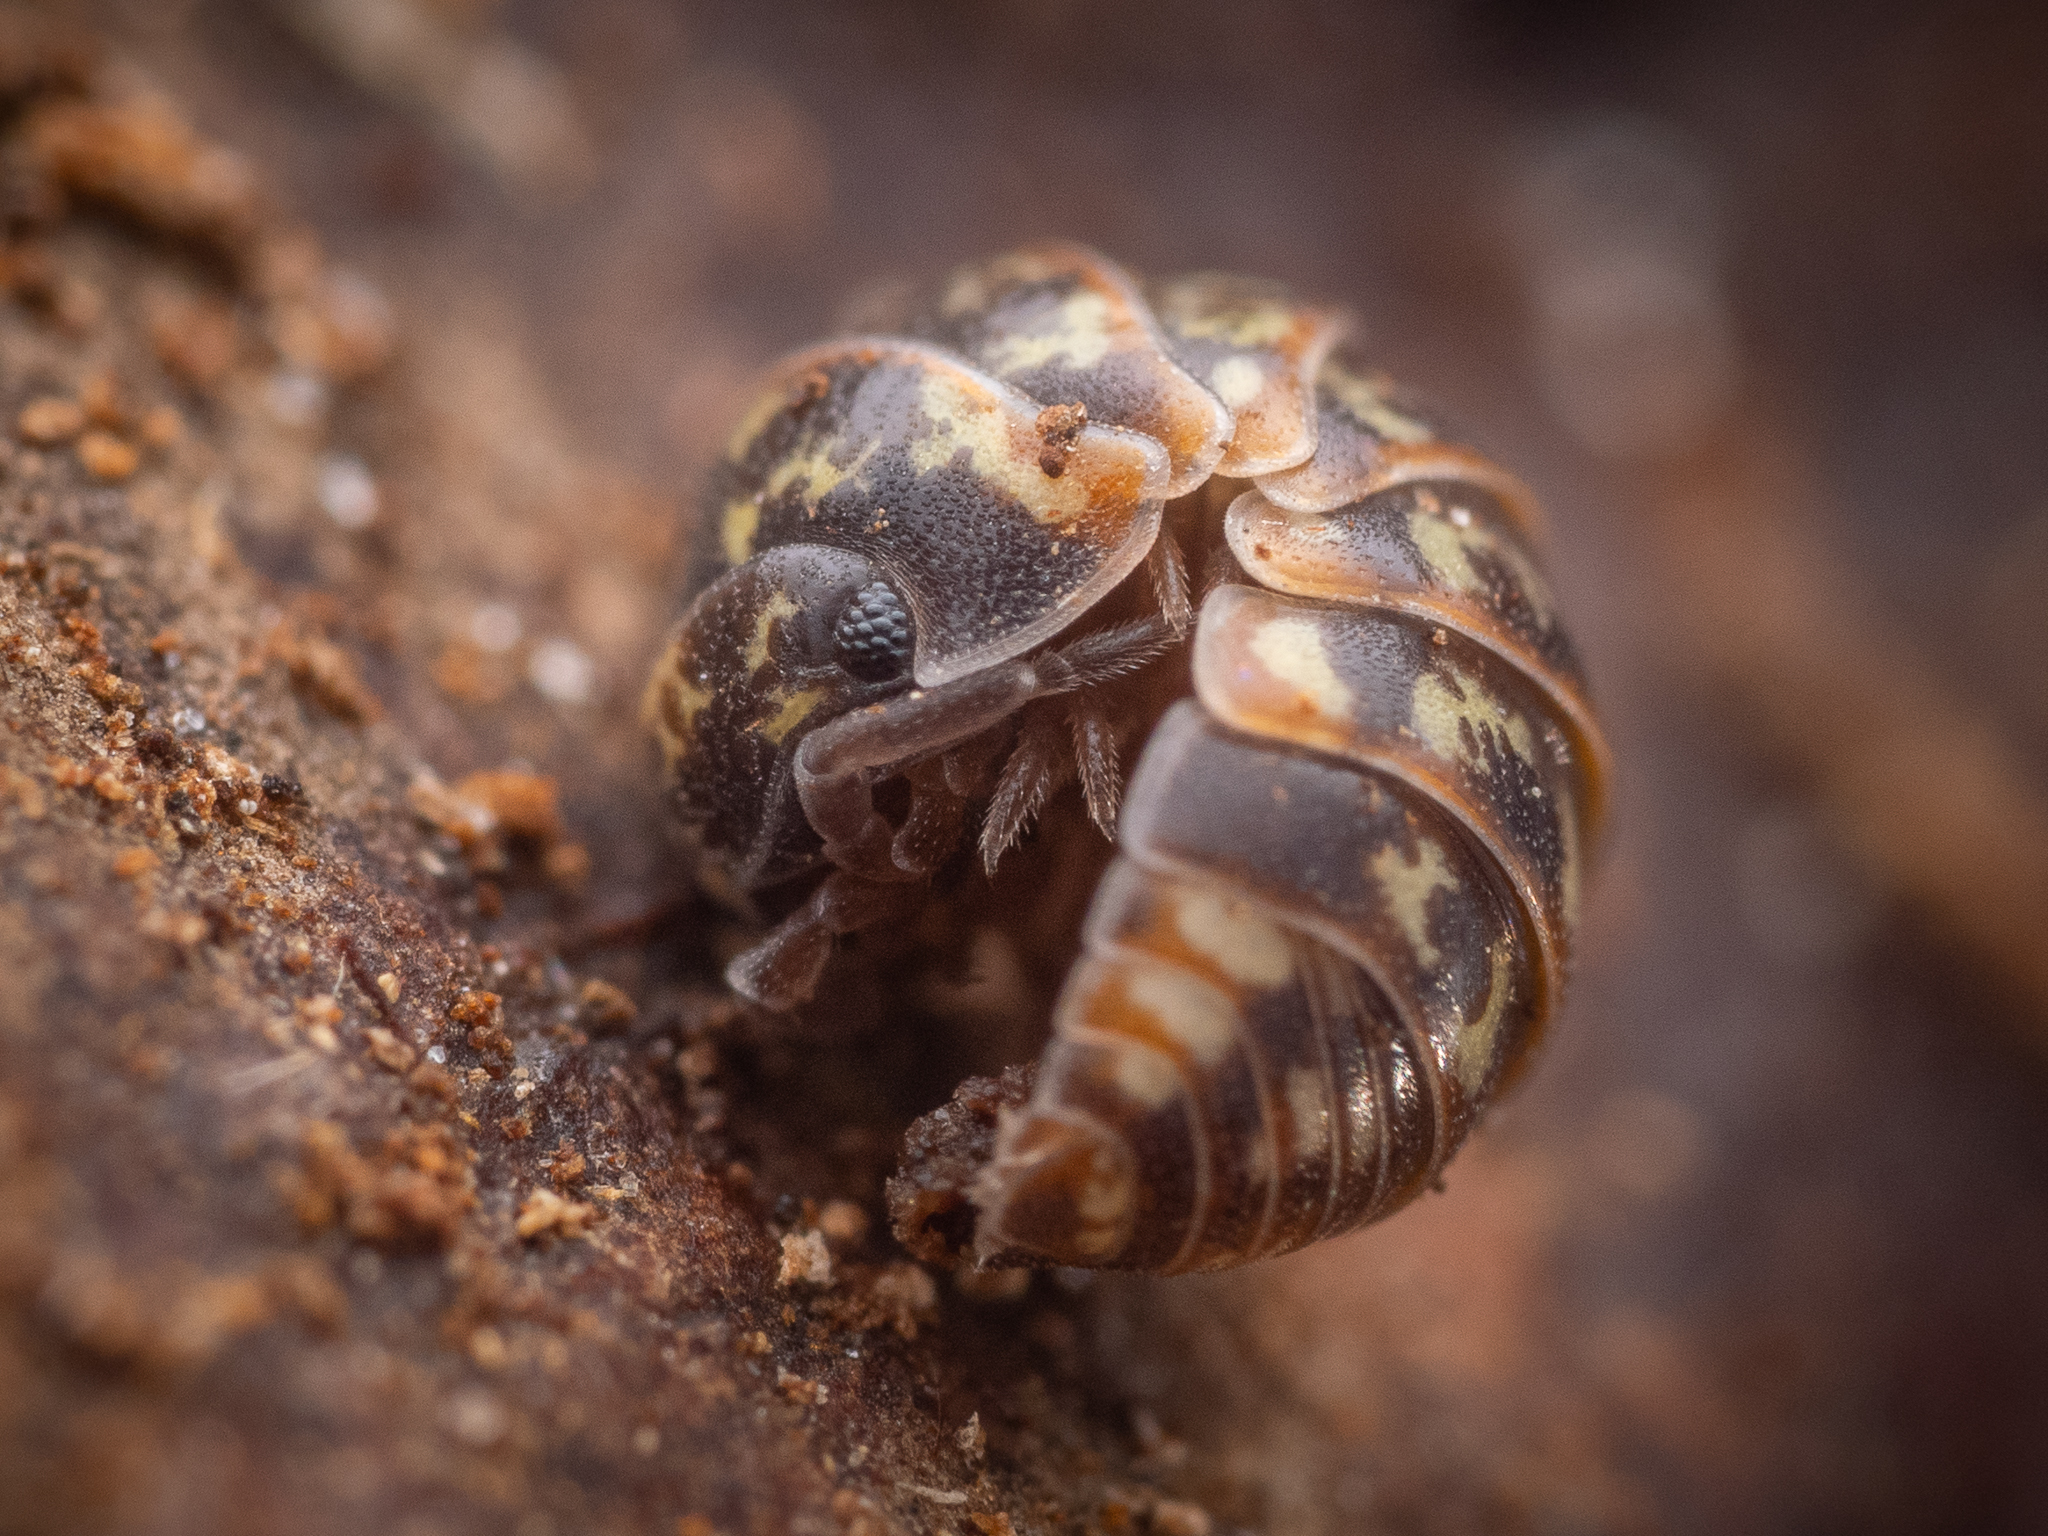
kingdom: Animalia
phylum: Arthropoda
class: Malacostraca
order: Isopoda
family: Armadillidiidae
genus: Armadillidium
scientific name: Armadillidium pulchellum
